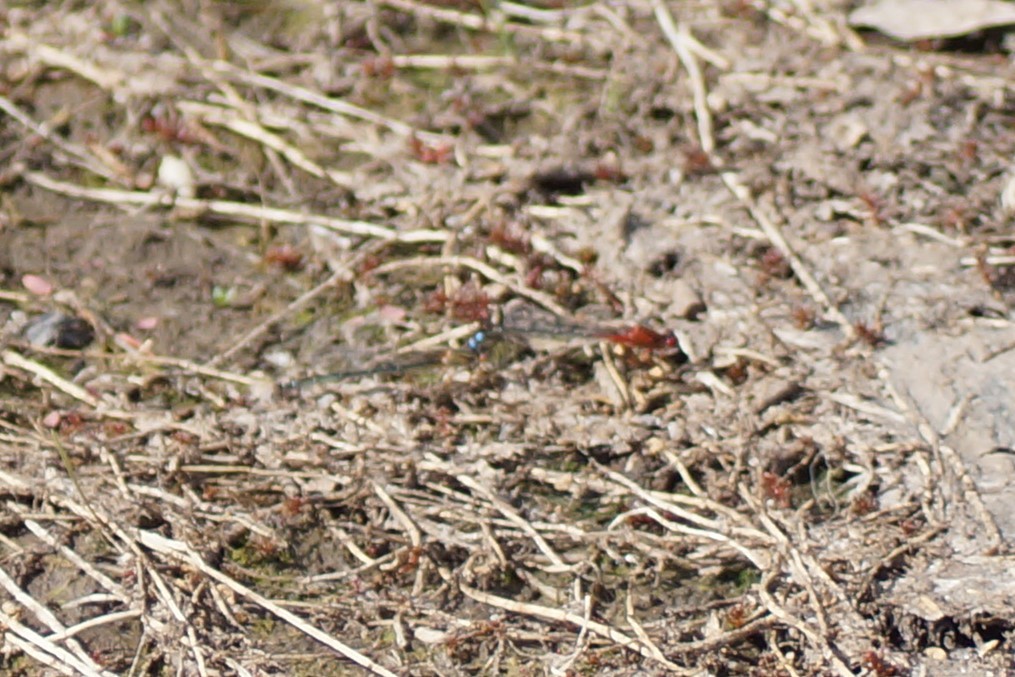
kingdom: Animalia
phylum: Arthropoda
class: Insecta
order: Odonata
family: Coenagrionidae
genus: Xanthagrion
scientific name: Xanthagrion erythroneurum
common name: Red and blue damsel
